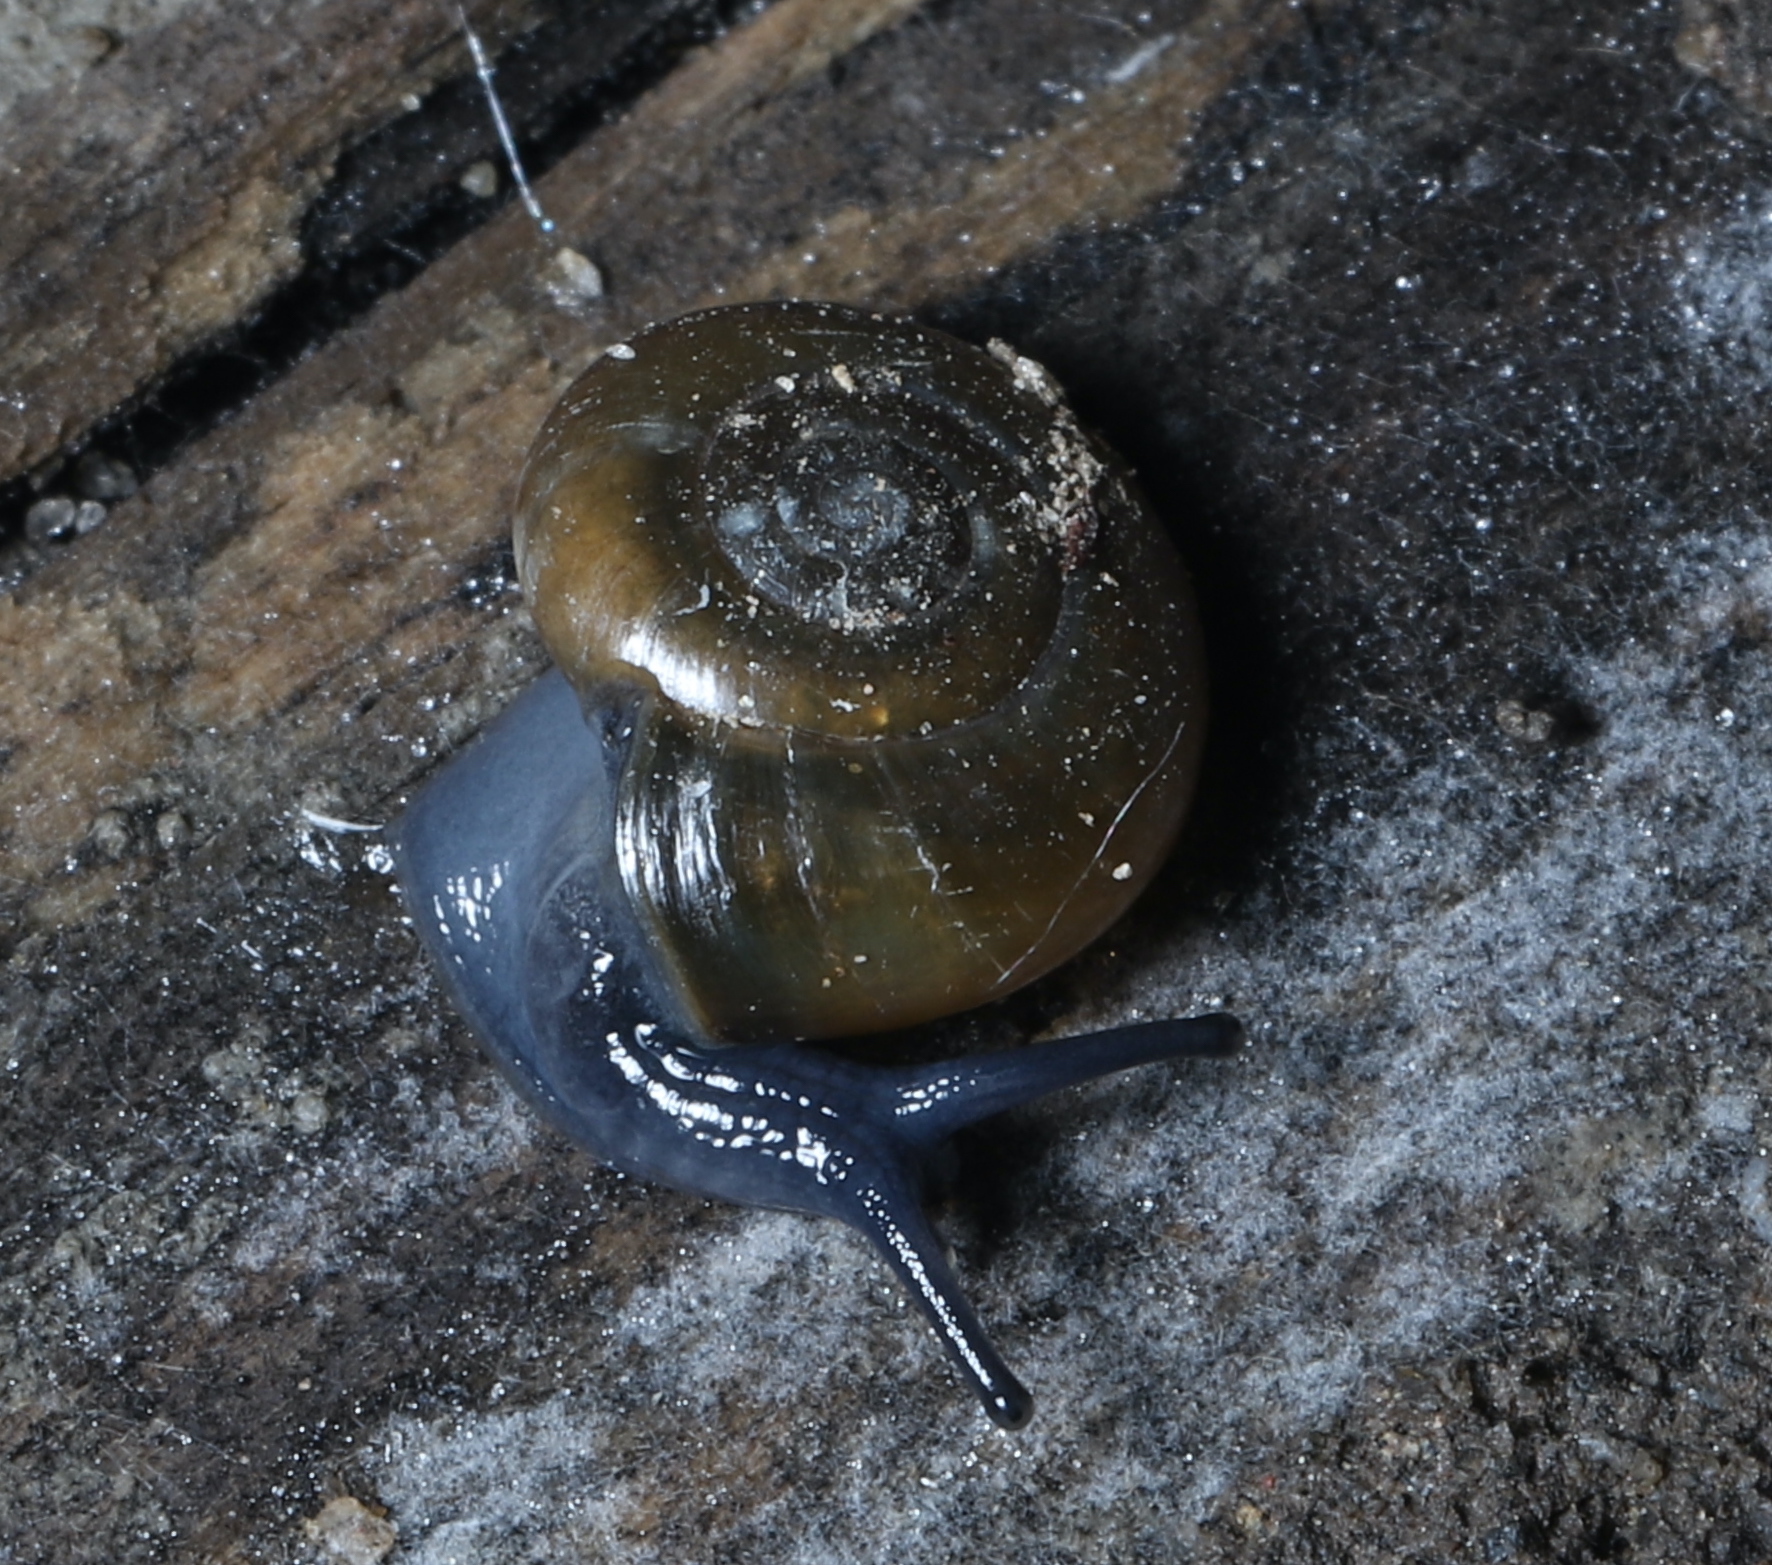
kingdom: Animalia
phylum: Mollusca
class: Gastropoda
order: Stylommatophora
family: Oxychilidae
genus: Oxychilus
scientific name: Oxychilus draparnaudi
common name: Draparnaud's glass snail
